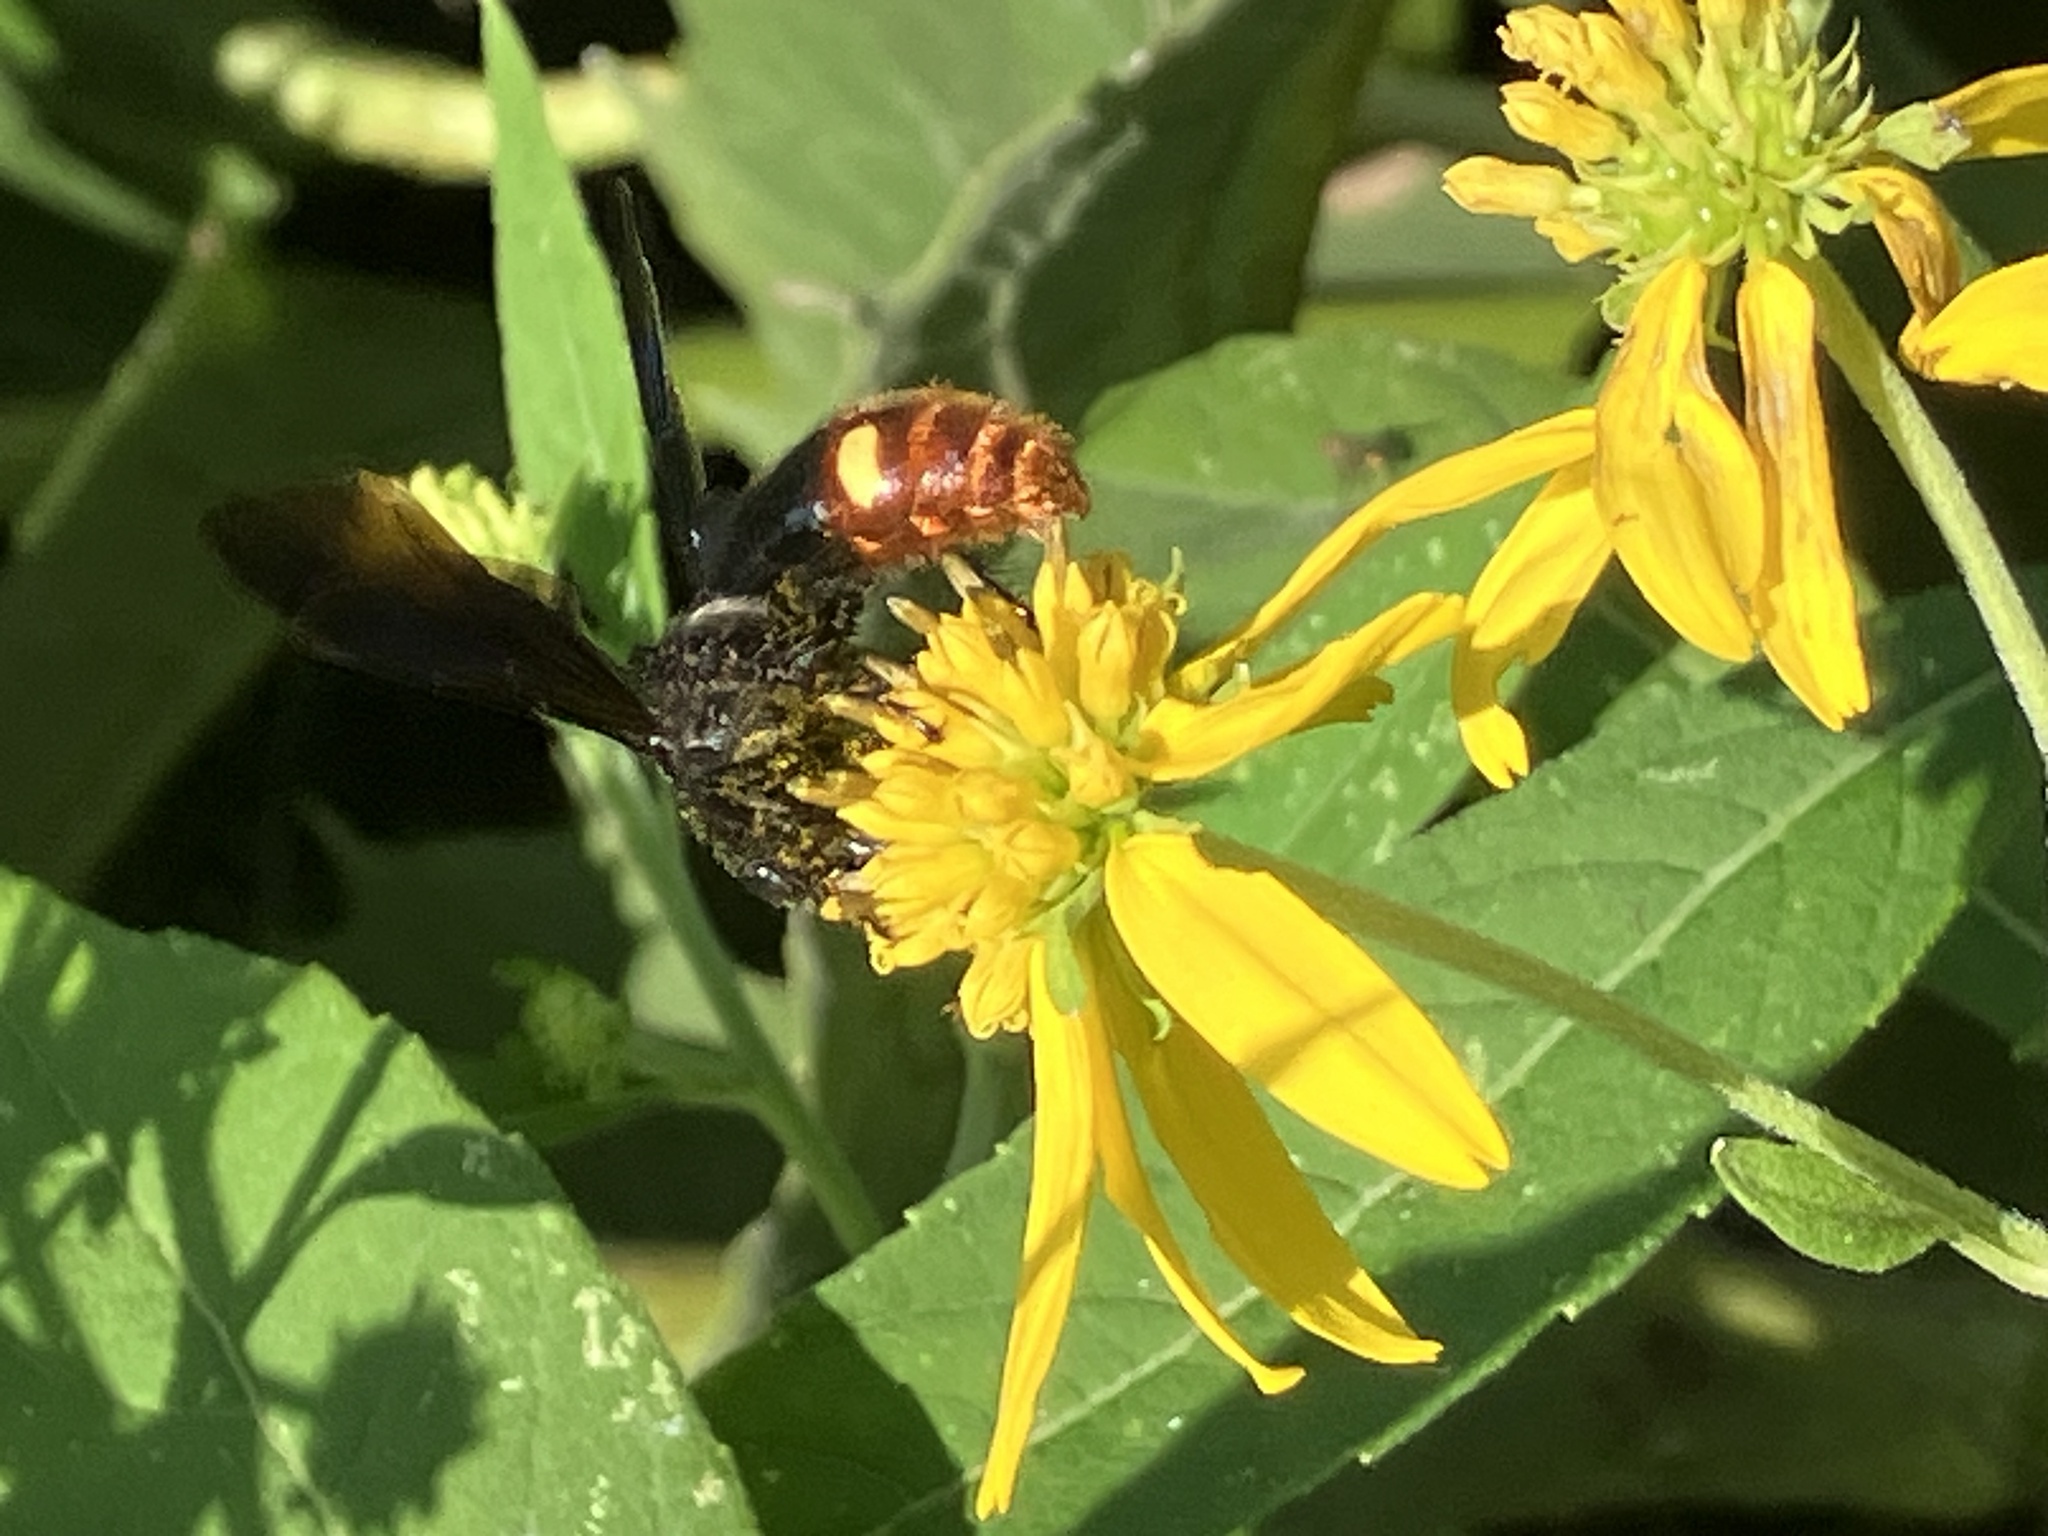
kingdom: Animalia
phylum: Arthropoda
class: Insecta
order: Hymenoptera
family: Scoliidae
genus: Scolia
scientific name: Scolia dubia
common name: Blue-winged scoliid wasp
